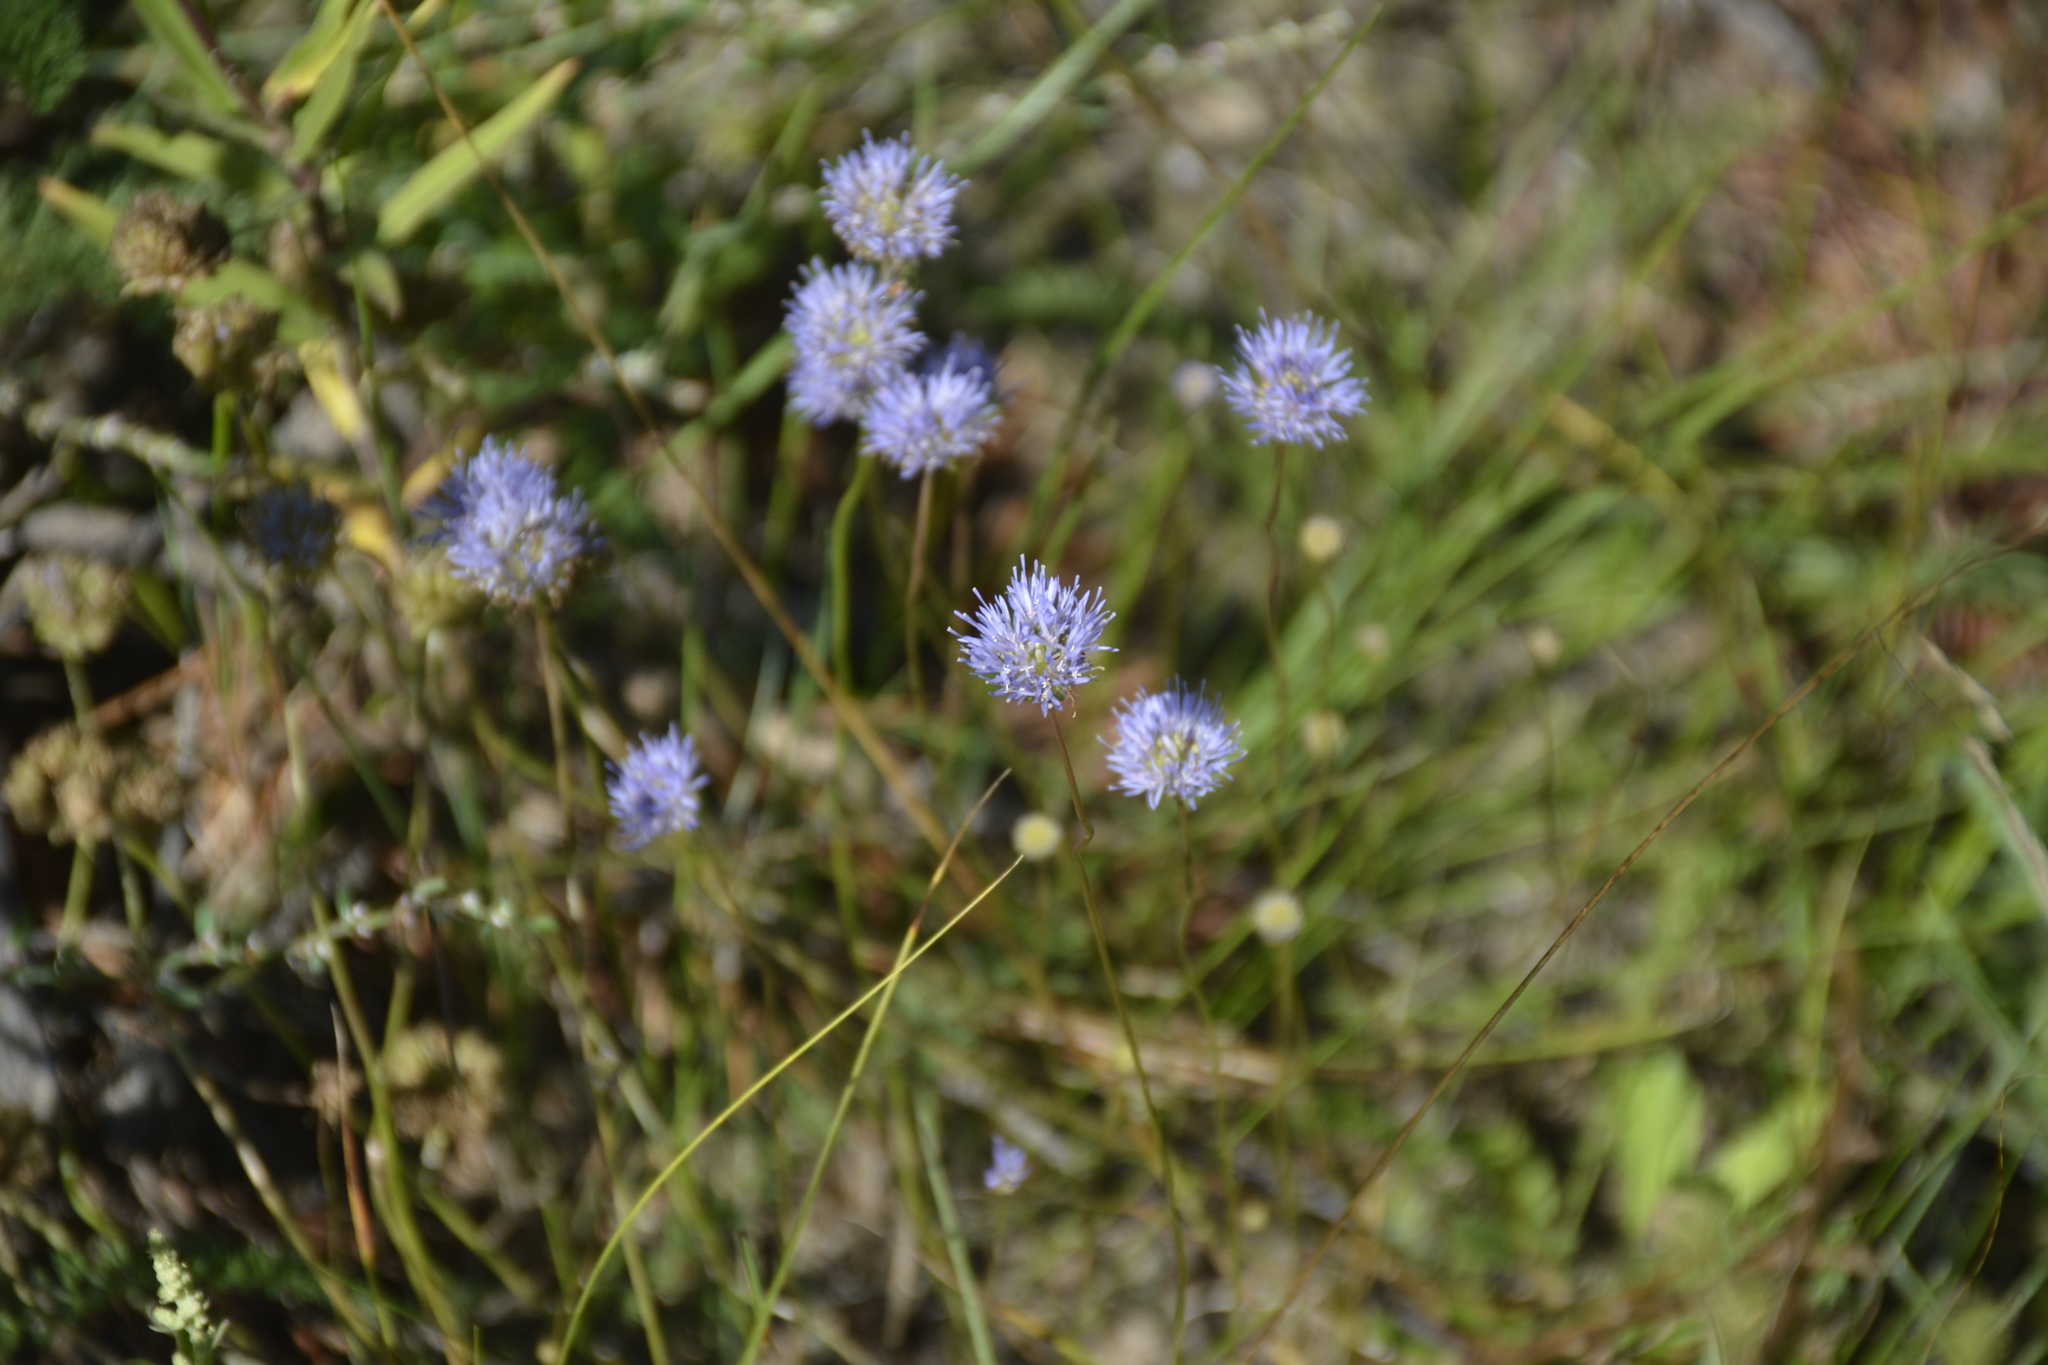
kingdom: Plantae
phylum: Tracheophyta
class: Magnoliopsida
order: Asterales
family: Campanulaceae
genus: Jasione
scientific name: Jasione montana
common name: Sheep's-bit
